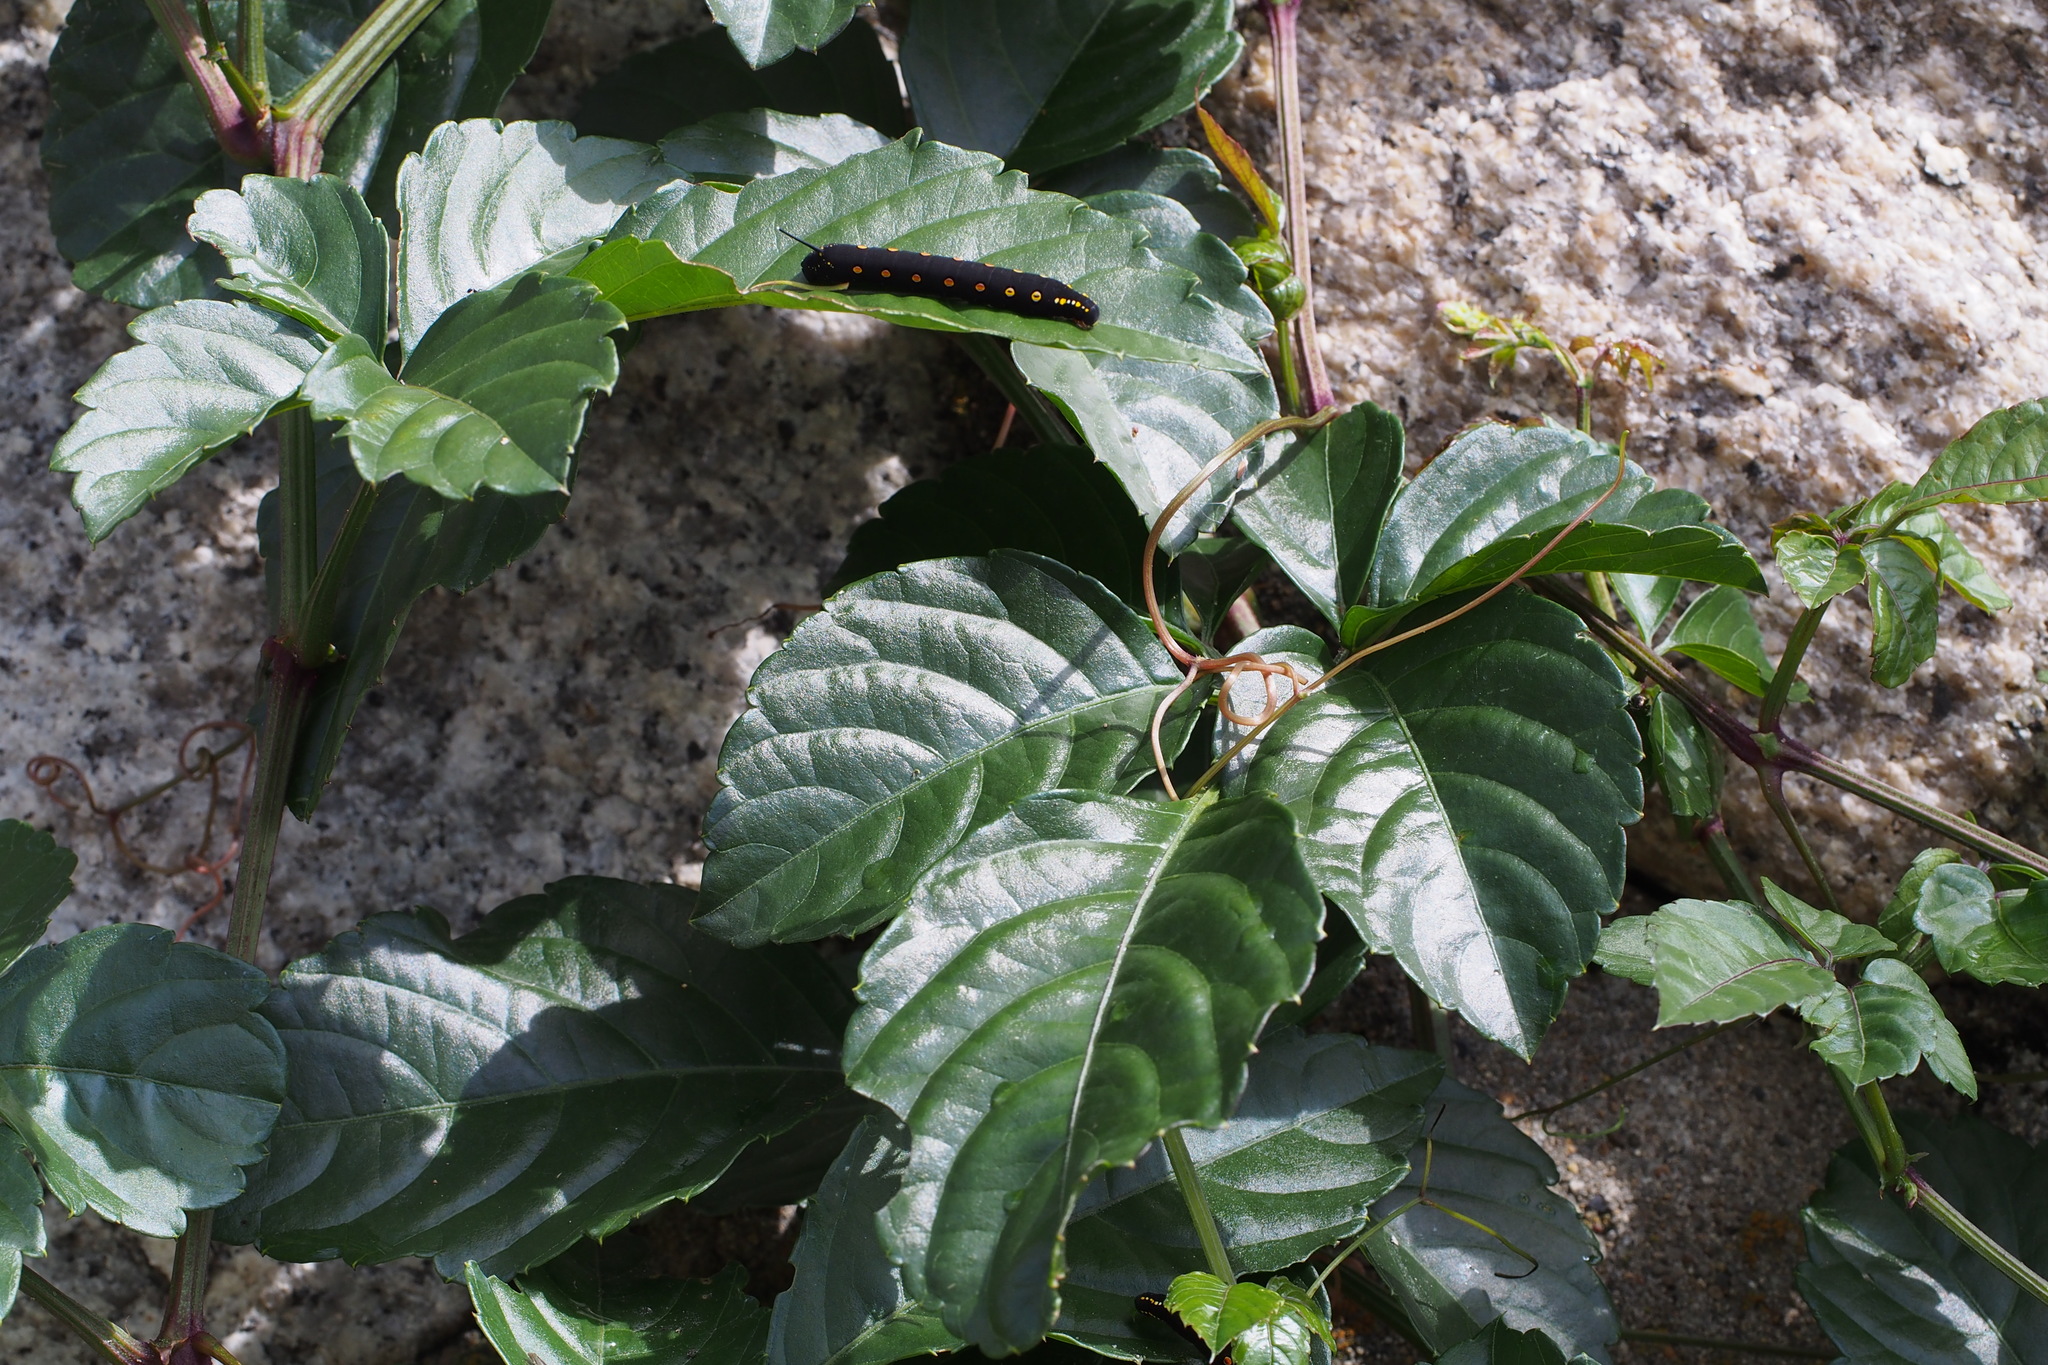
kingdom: Plantae
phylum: Tracheophyta
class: Magnoliopsida
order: Vitales
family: Vitaceae
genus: Causonis
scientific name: Causonis japonica
